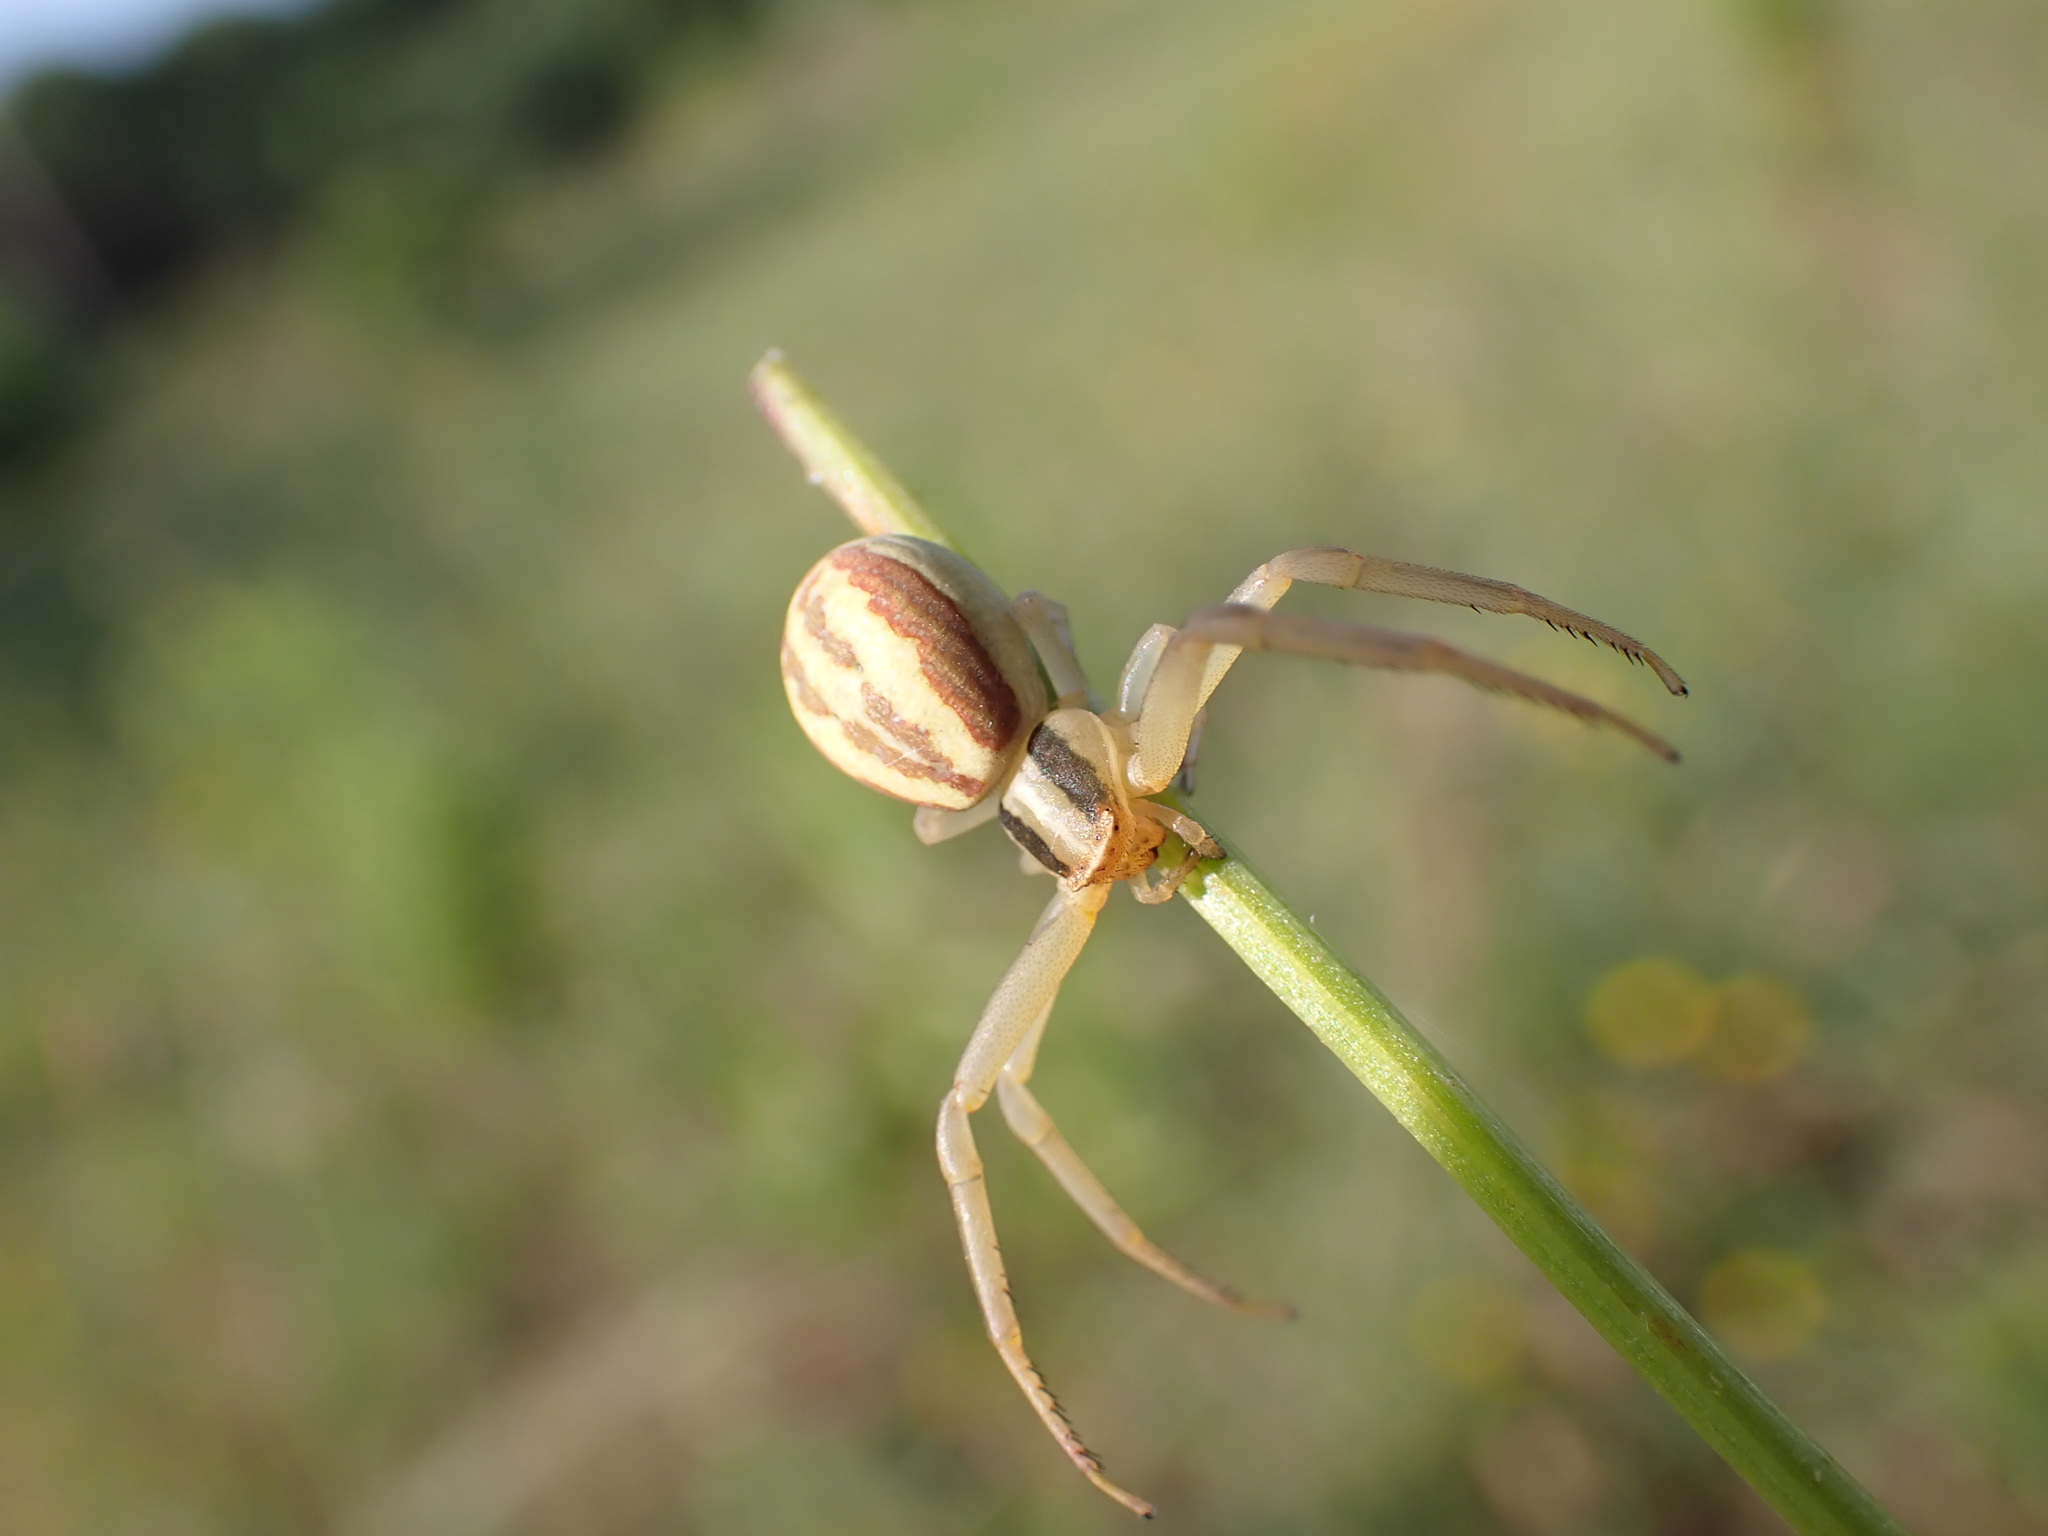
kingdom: Animalia
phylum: Arthropoda
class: Arachnida
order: Araneae
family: Thomisidae
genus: Runcinia
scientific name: Runcinia grammica
